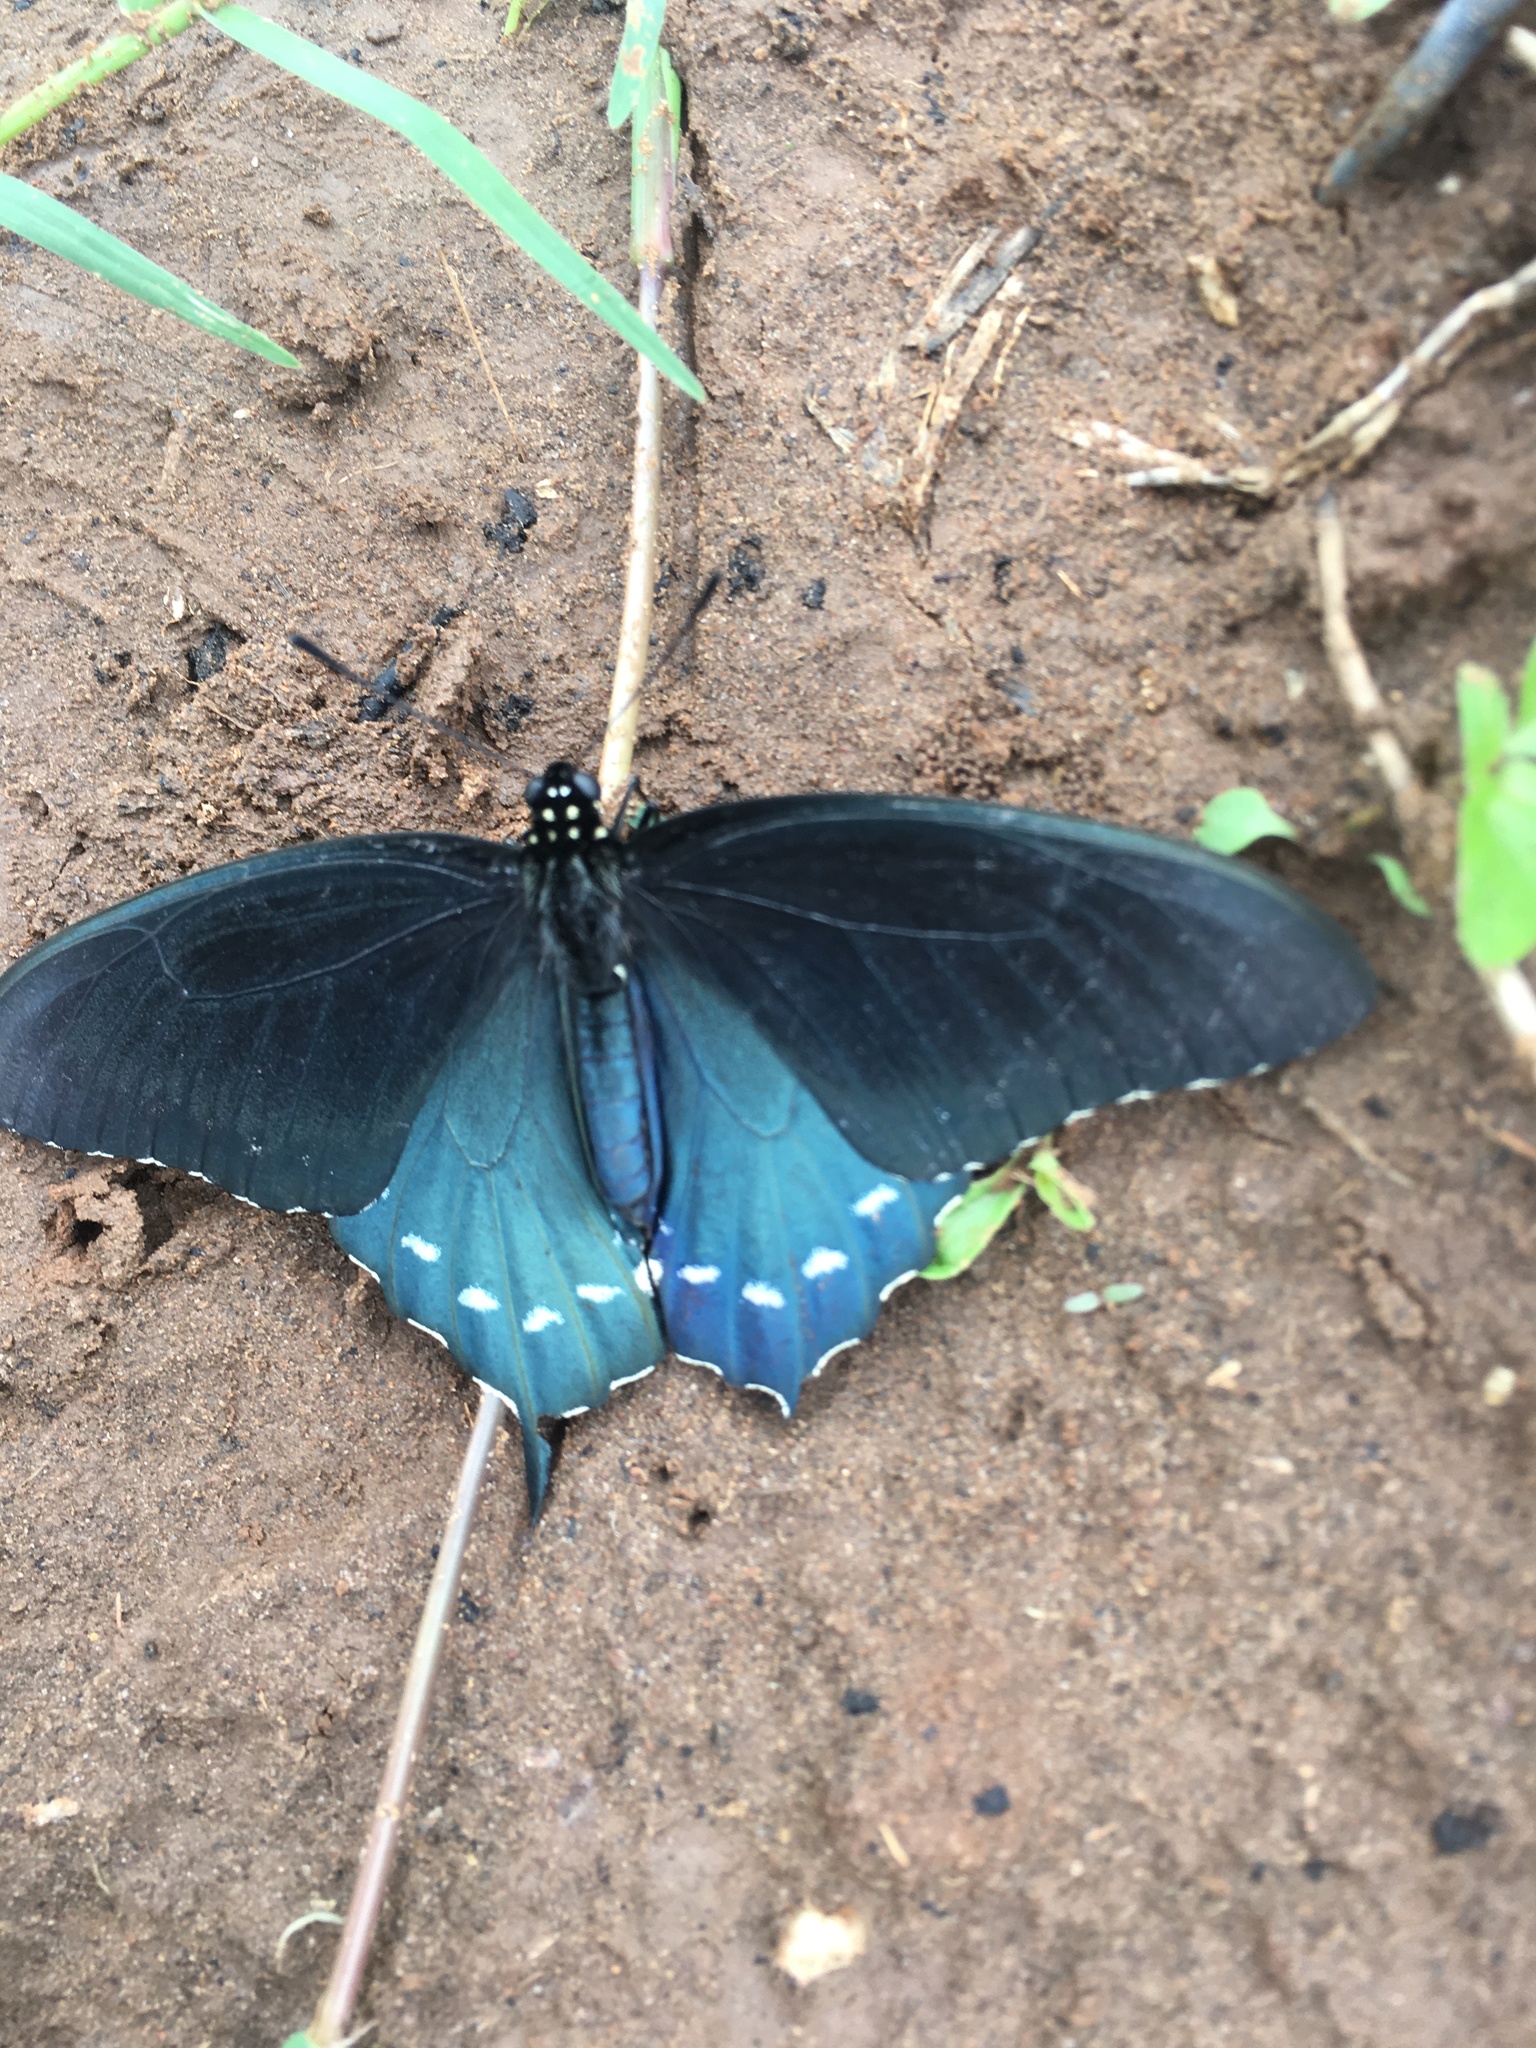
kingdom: Animalia
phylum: Arthropoda
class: Insecta
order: Lepidoptera
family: Papilionidae
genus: Battus
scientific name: Battus philenor
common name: Pipevine swallowtail
